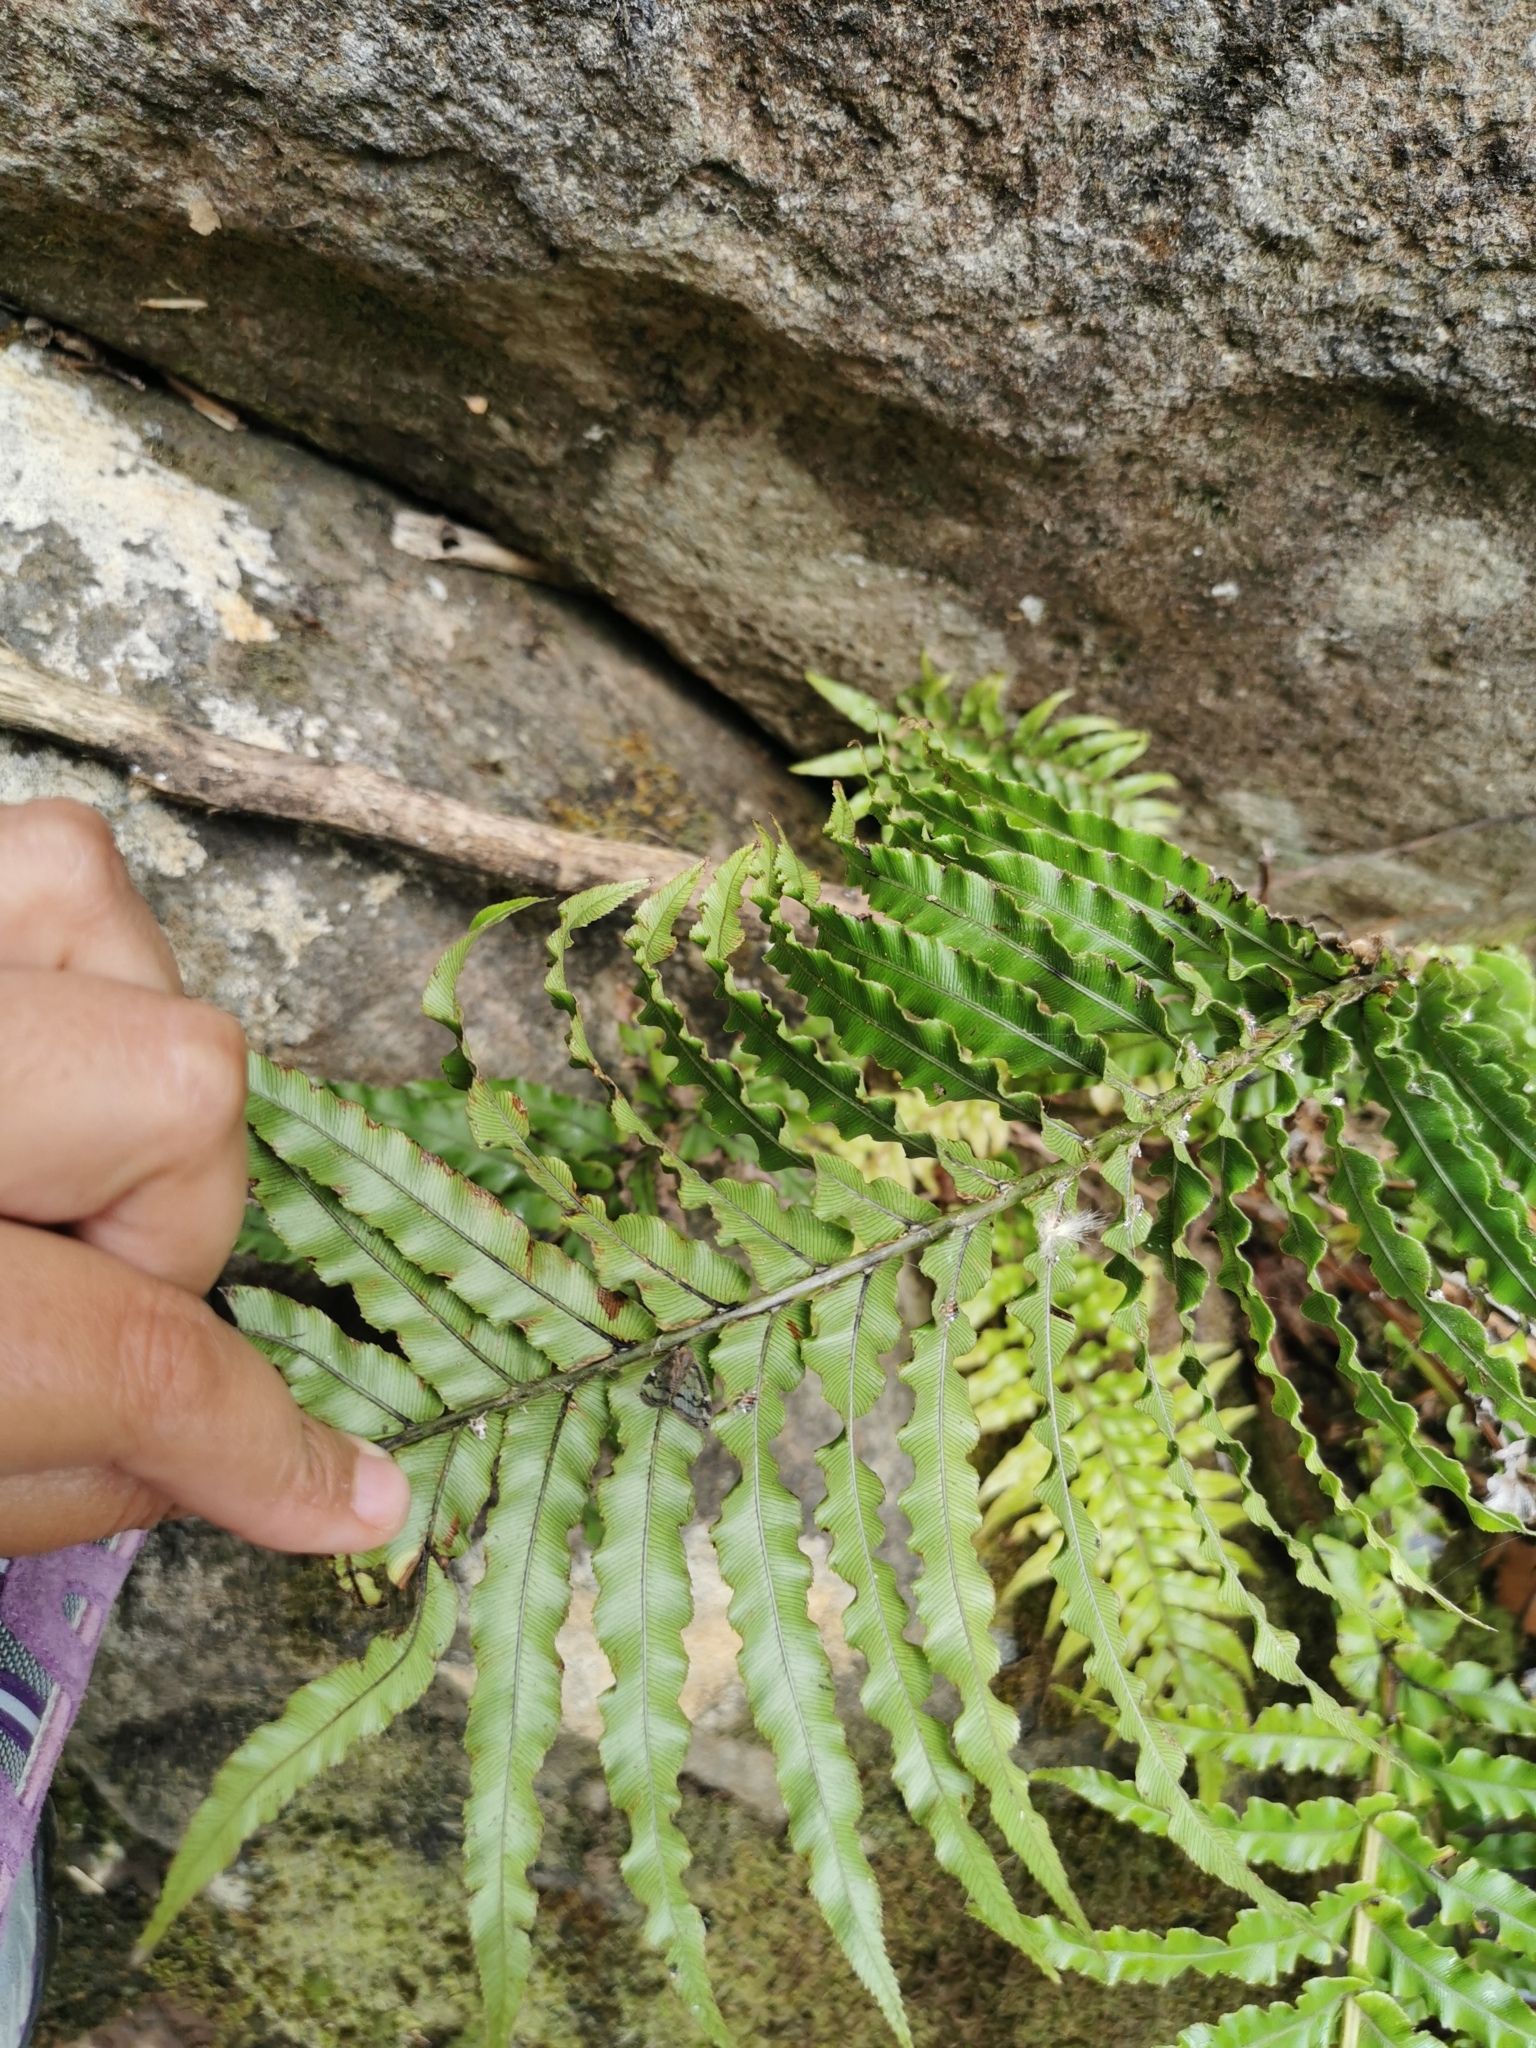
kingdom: Plantae
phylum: Tracheophyta
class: Polypodiopsida
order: Polypodiales
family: Blechnaceae
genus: Parablechnum
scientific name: Parablechnum novae-zelandiae
